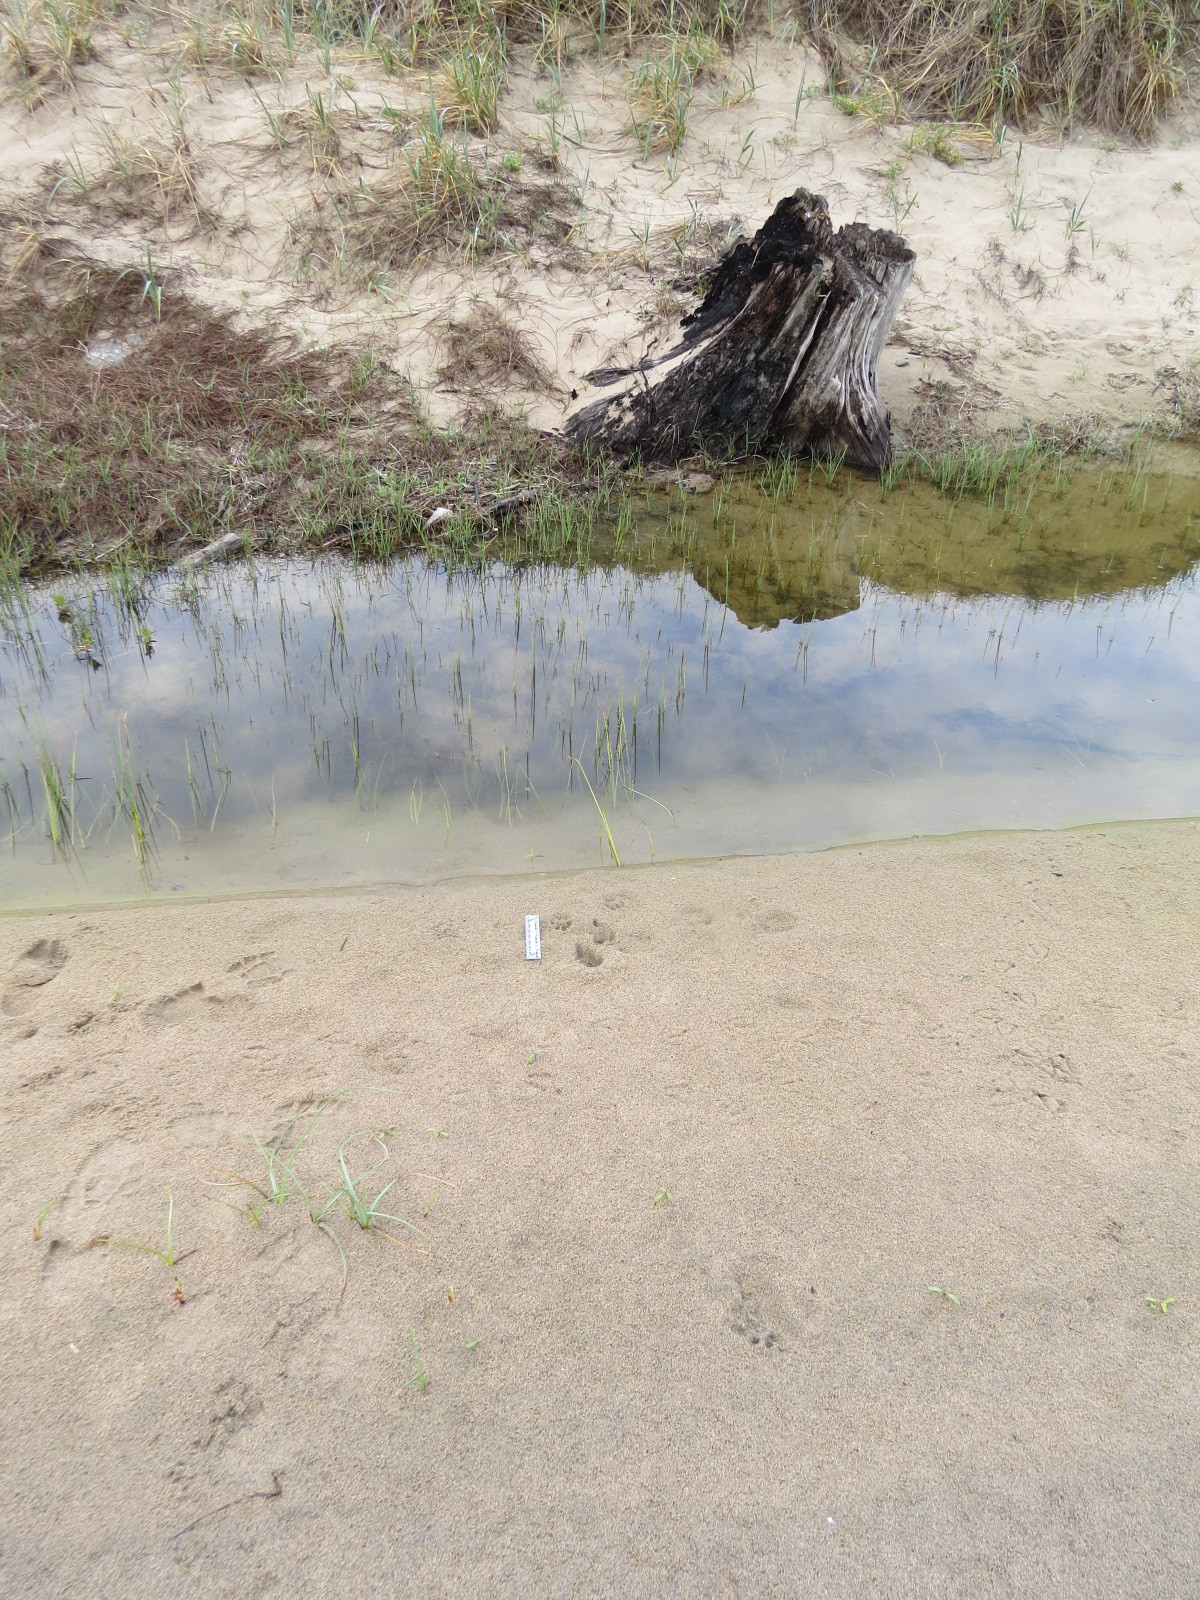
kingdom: Animalia
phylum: Chordata
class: Mammalia
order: Carnivora
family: Felidae
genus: Lynx
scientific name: Lynx rufus
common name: Bobcat
